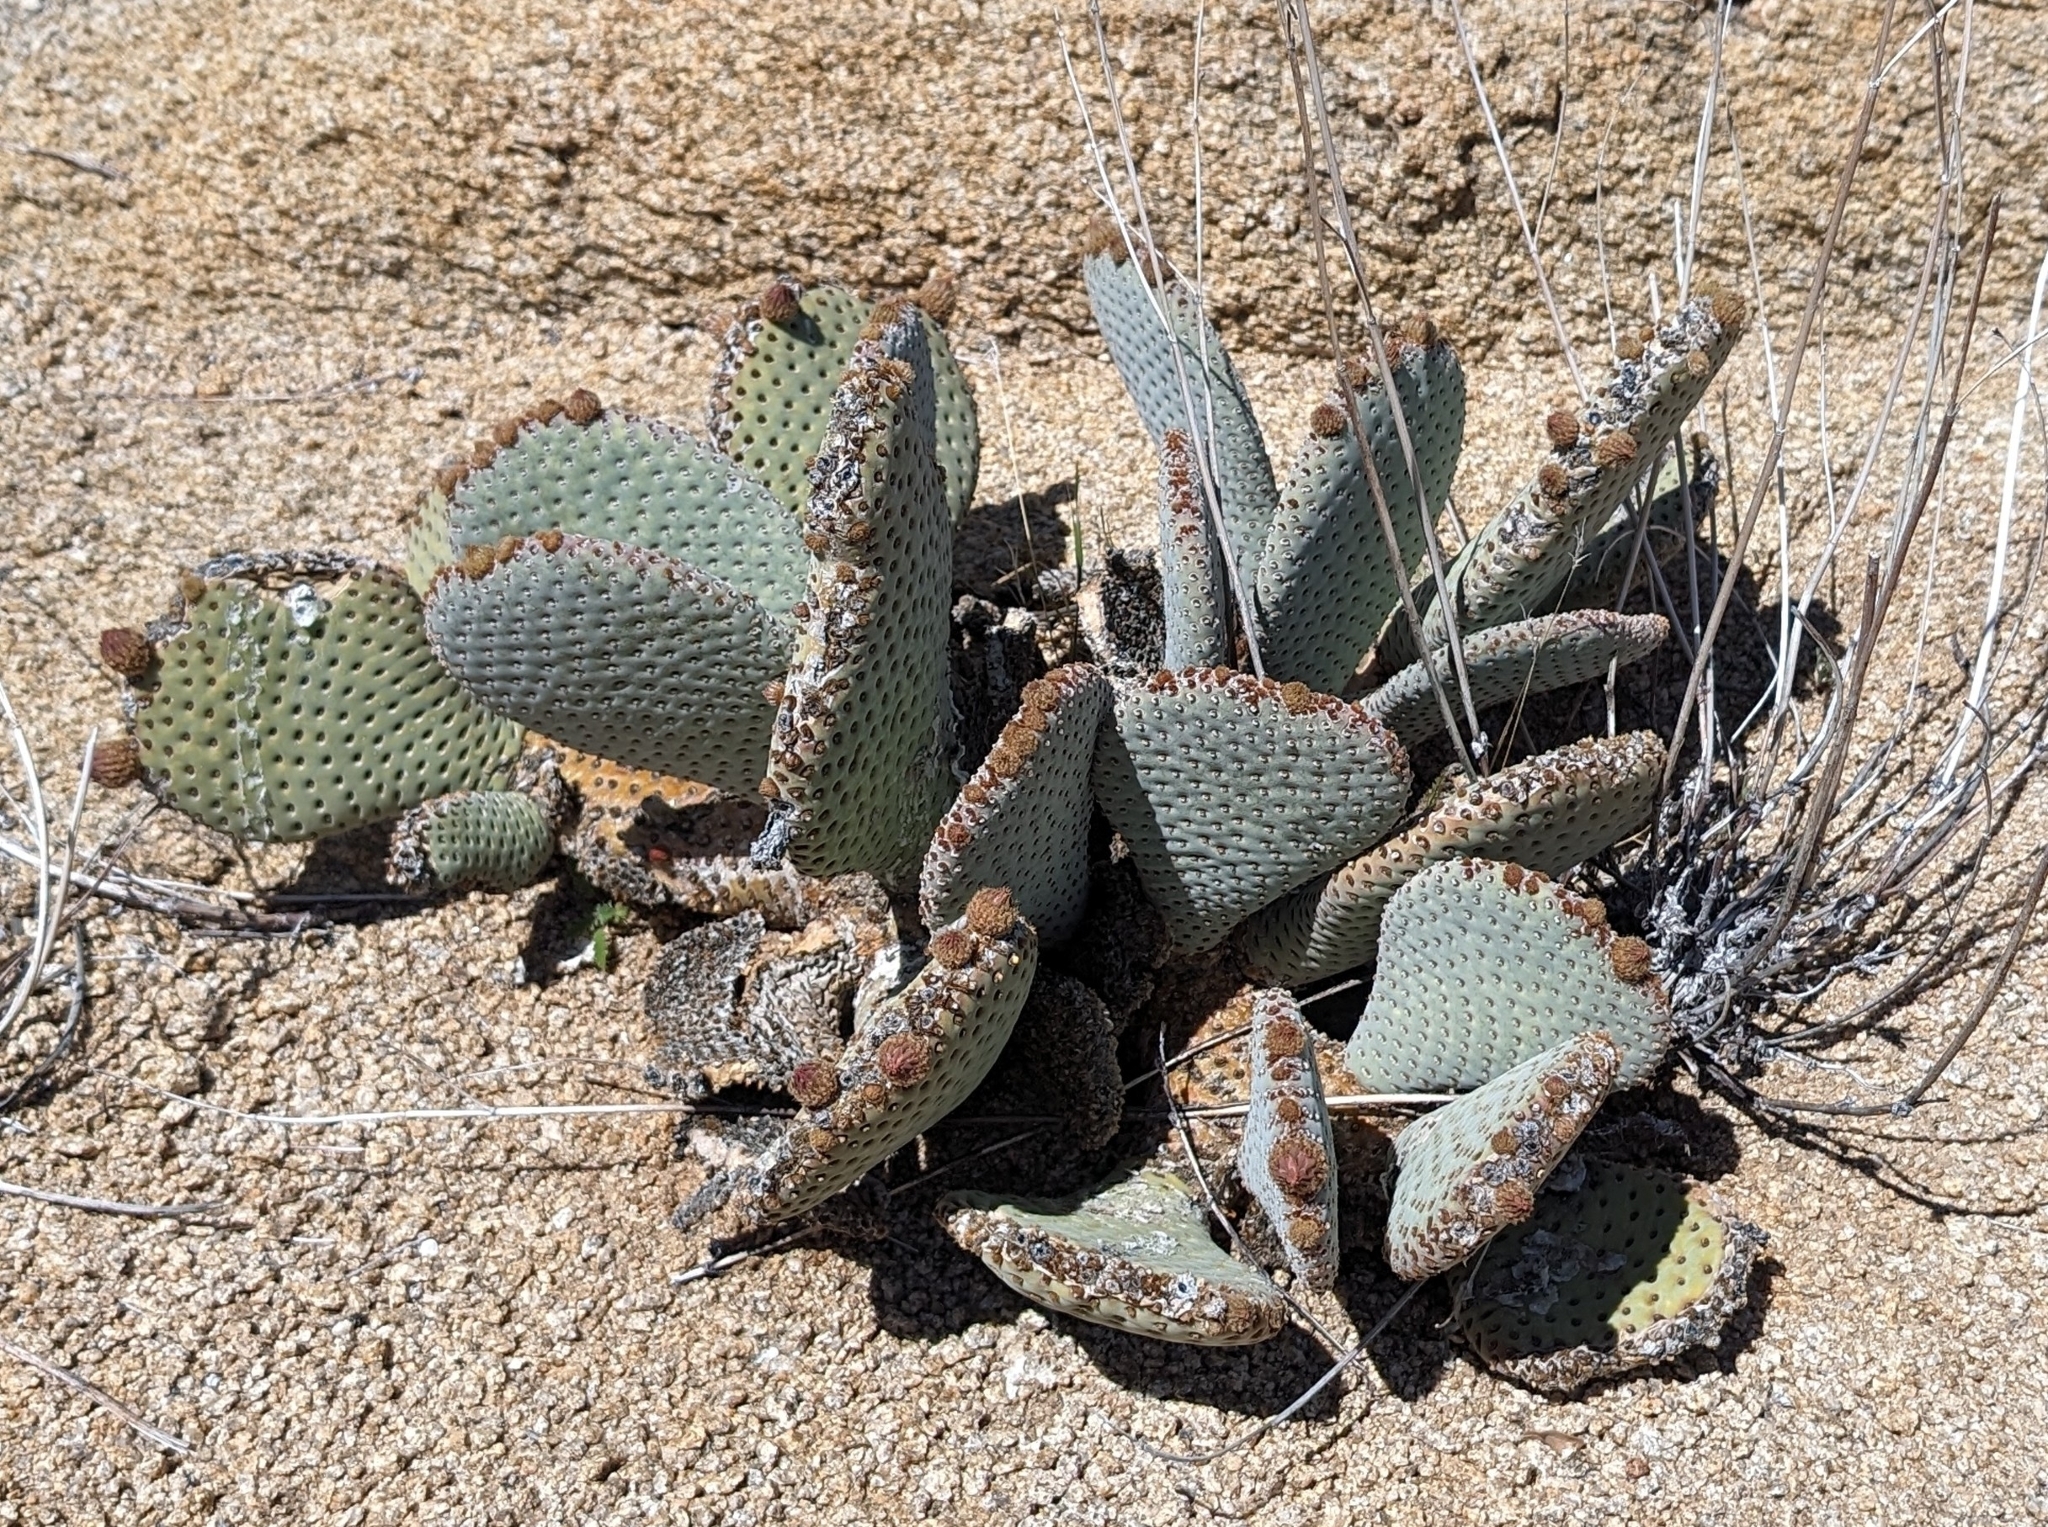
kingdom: Plantae
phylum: Tracheophyta
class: Magnoliopsida
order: Caryophyllales
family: Cactaceae
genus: Opuntia
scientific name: Opuntia basilaris
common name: Beavertail prickly-pear
